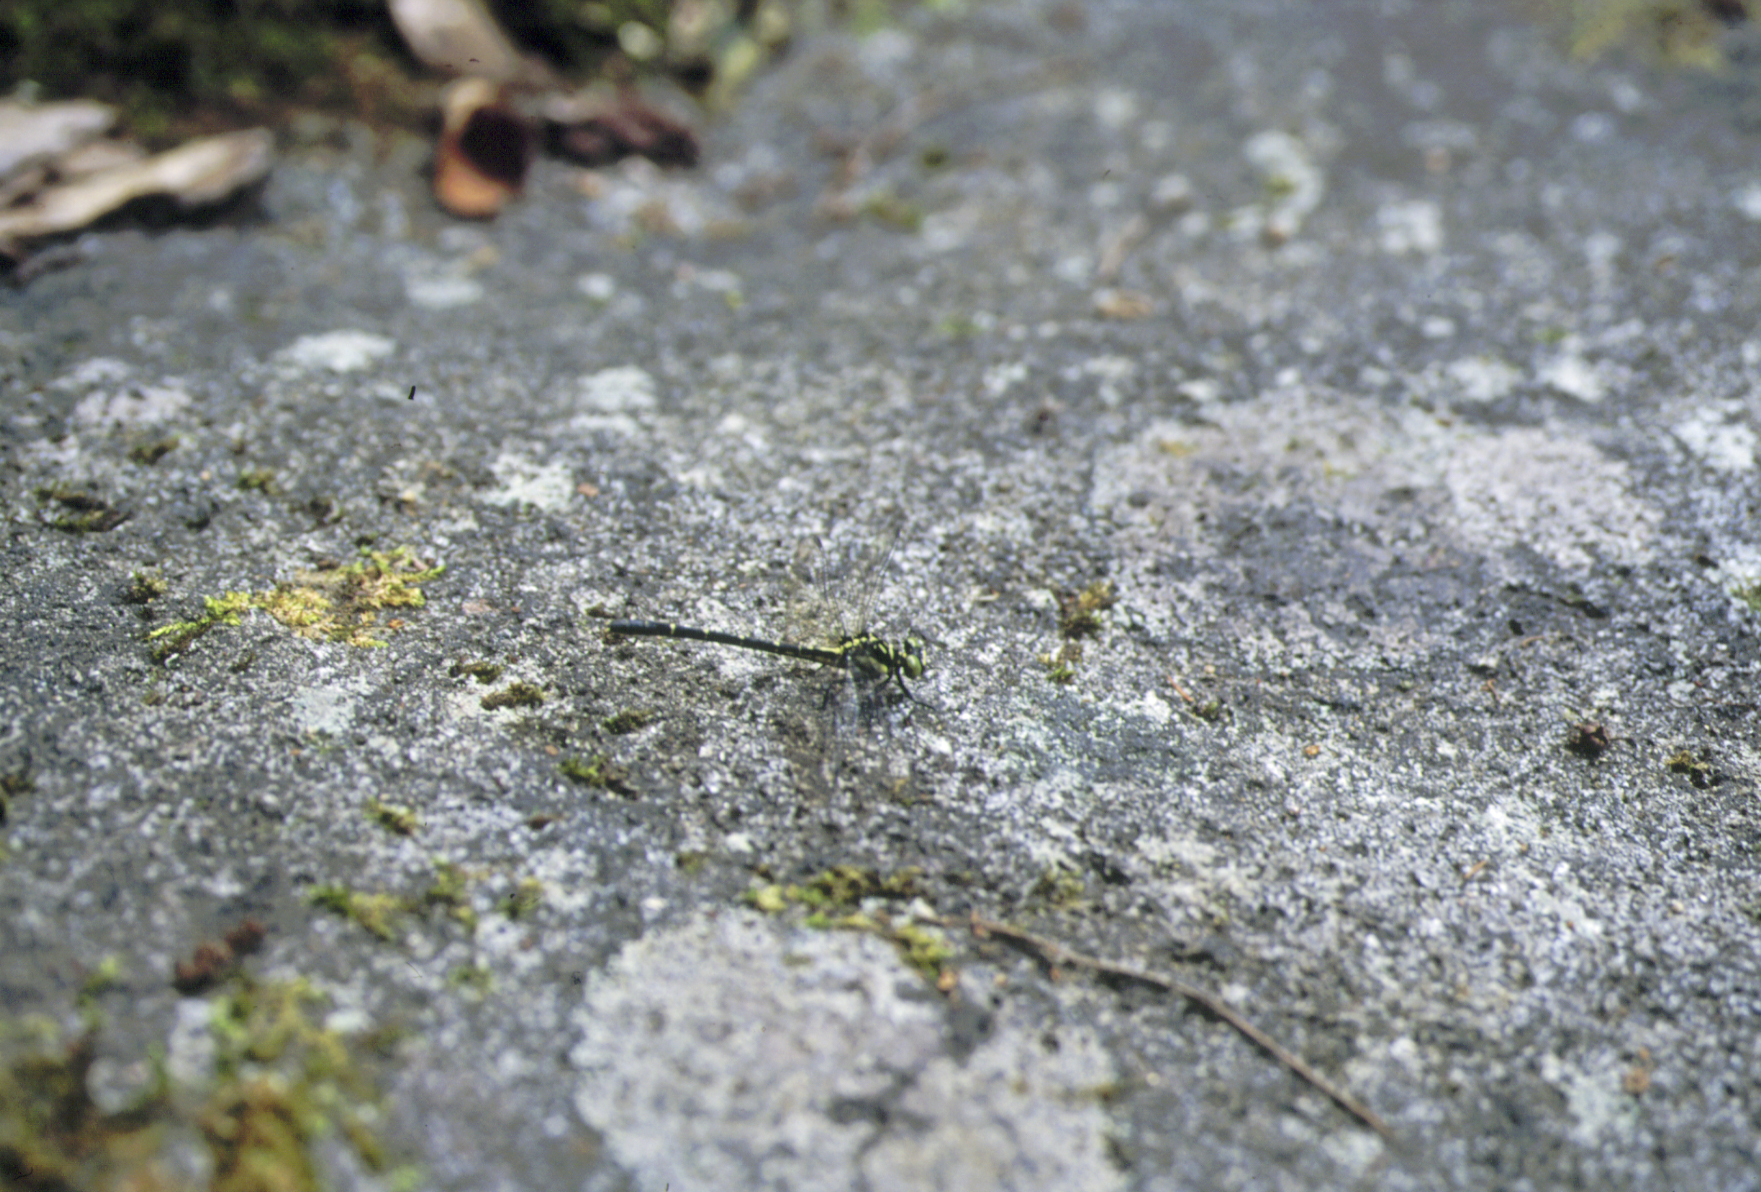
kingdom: Animalia
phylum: Arthropoda
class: Insecta
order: Odonata
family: Gomphidae
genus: Sinogomphus
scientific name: Sinogomphus flavolimbatus
